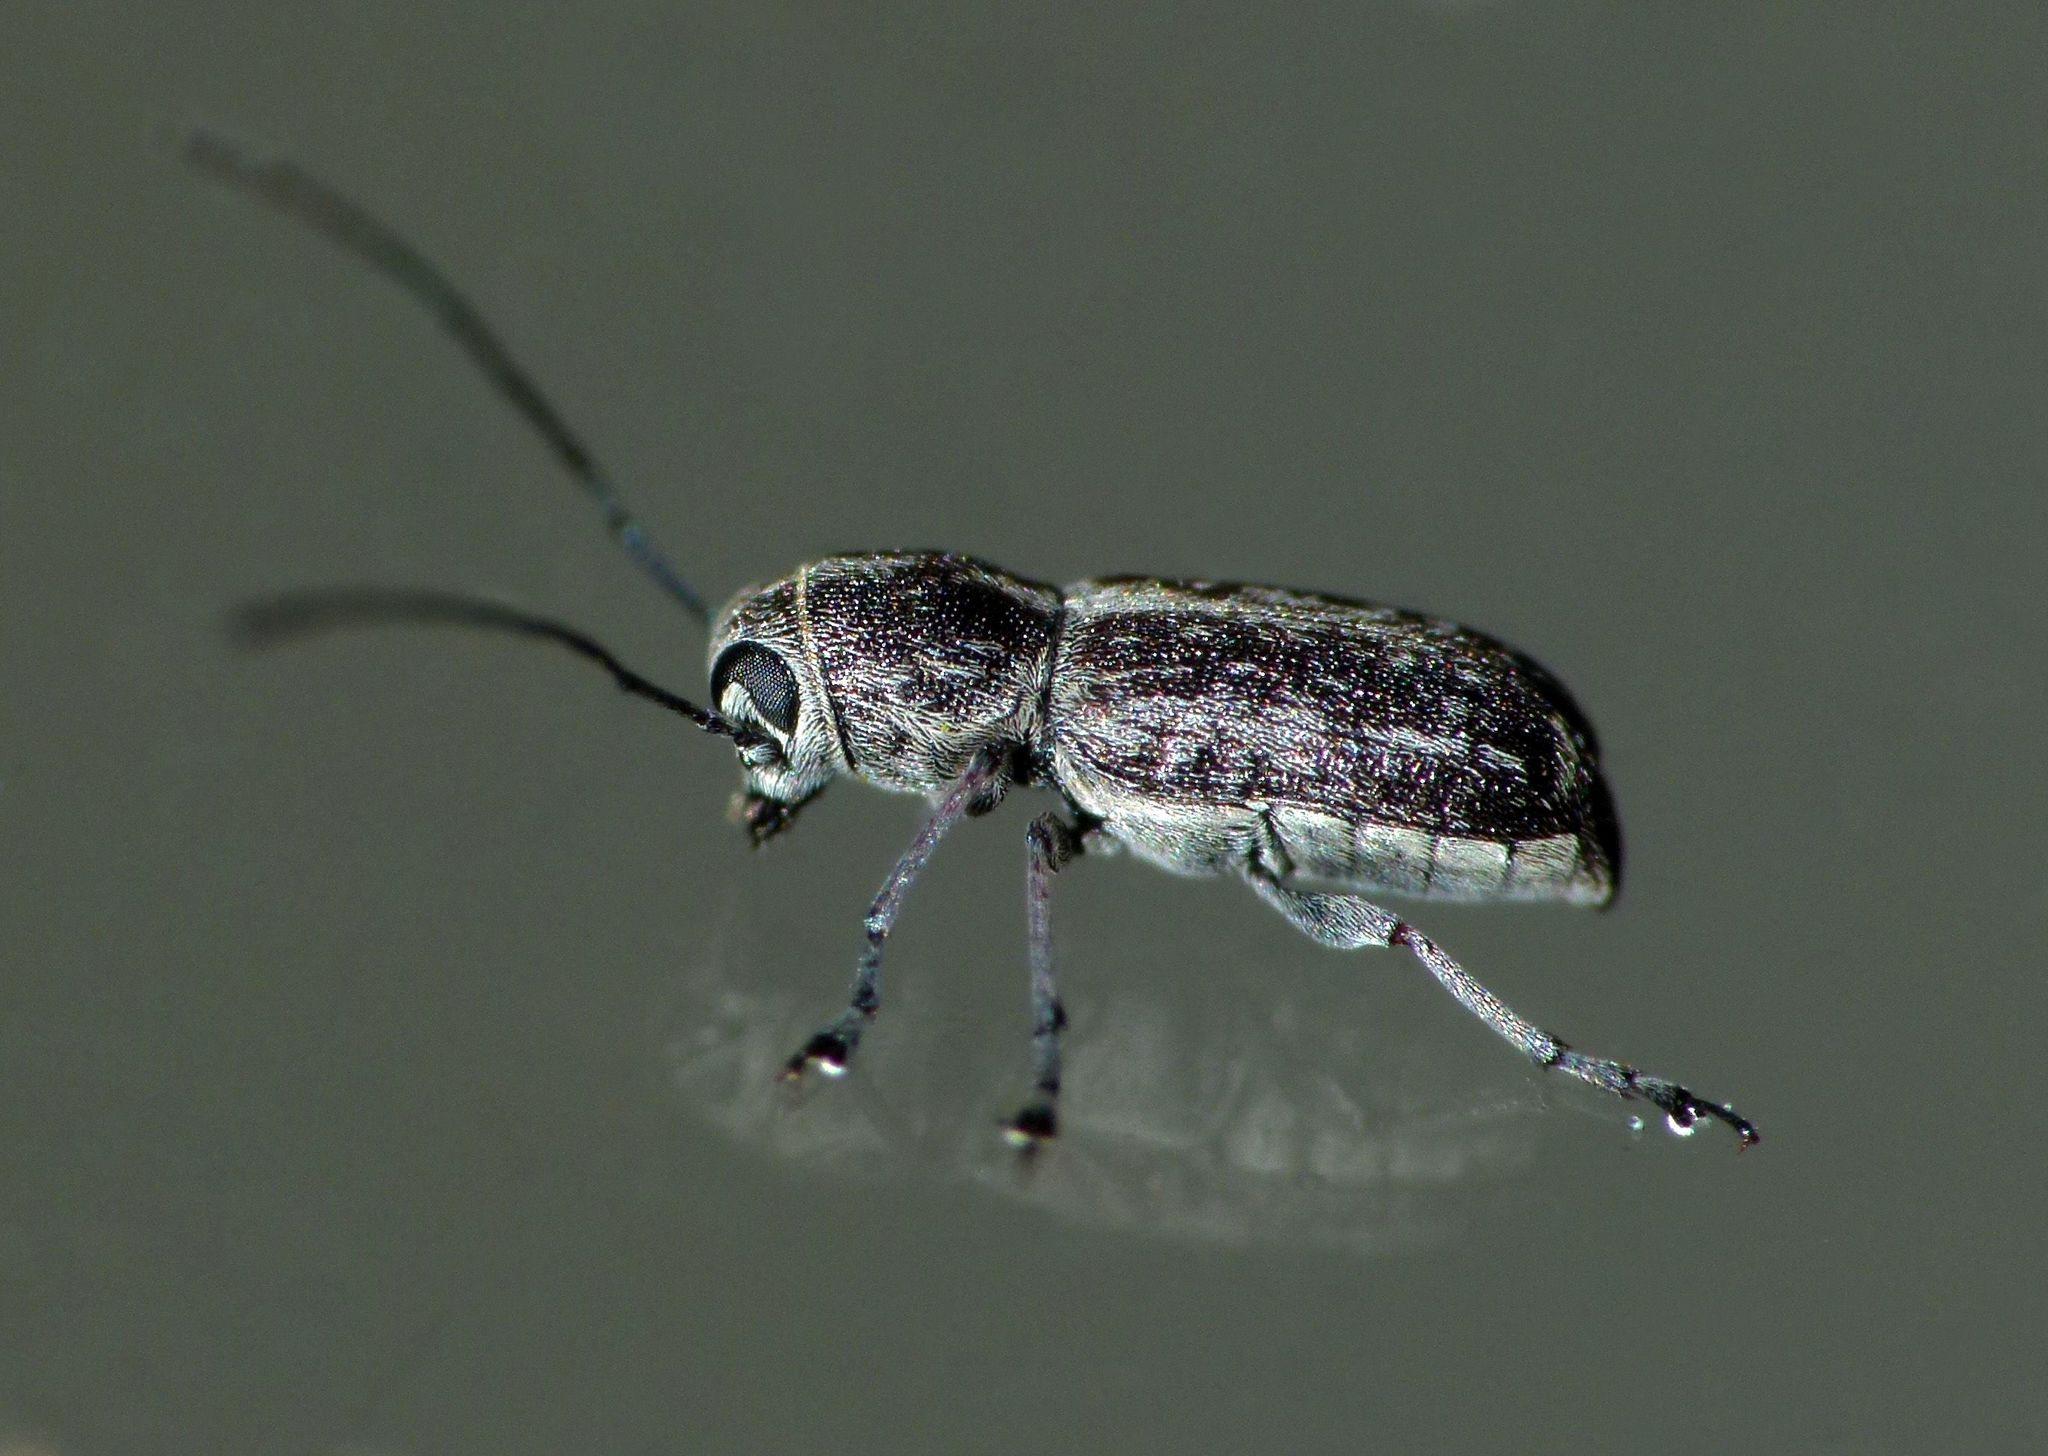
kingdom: Animalia
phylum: Arthropoda
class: Insecta
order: Coleoptera
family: Anthribidae
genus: Euciodes
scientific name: Euciodes suturalis
